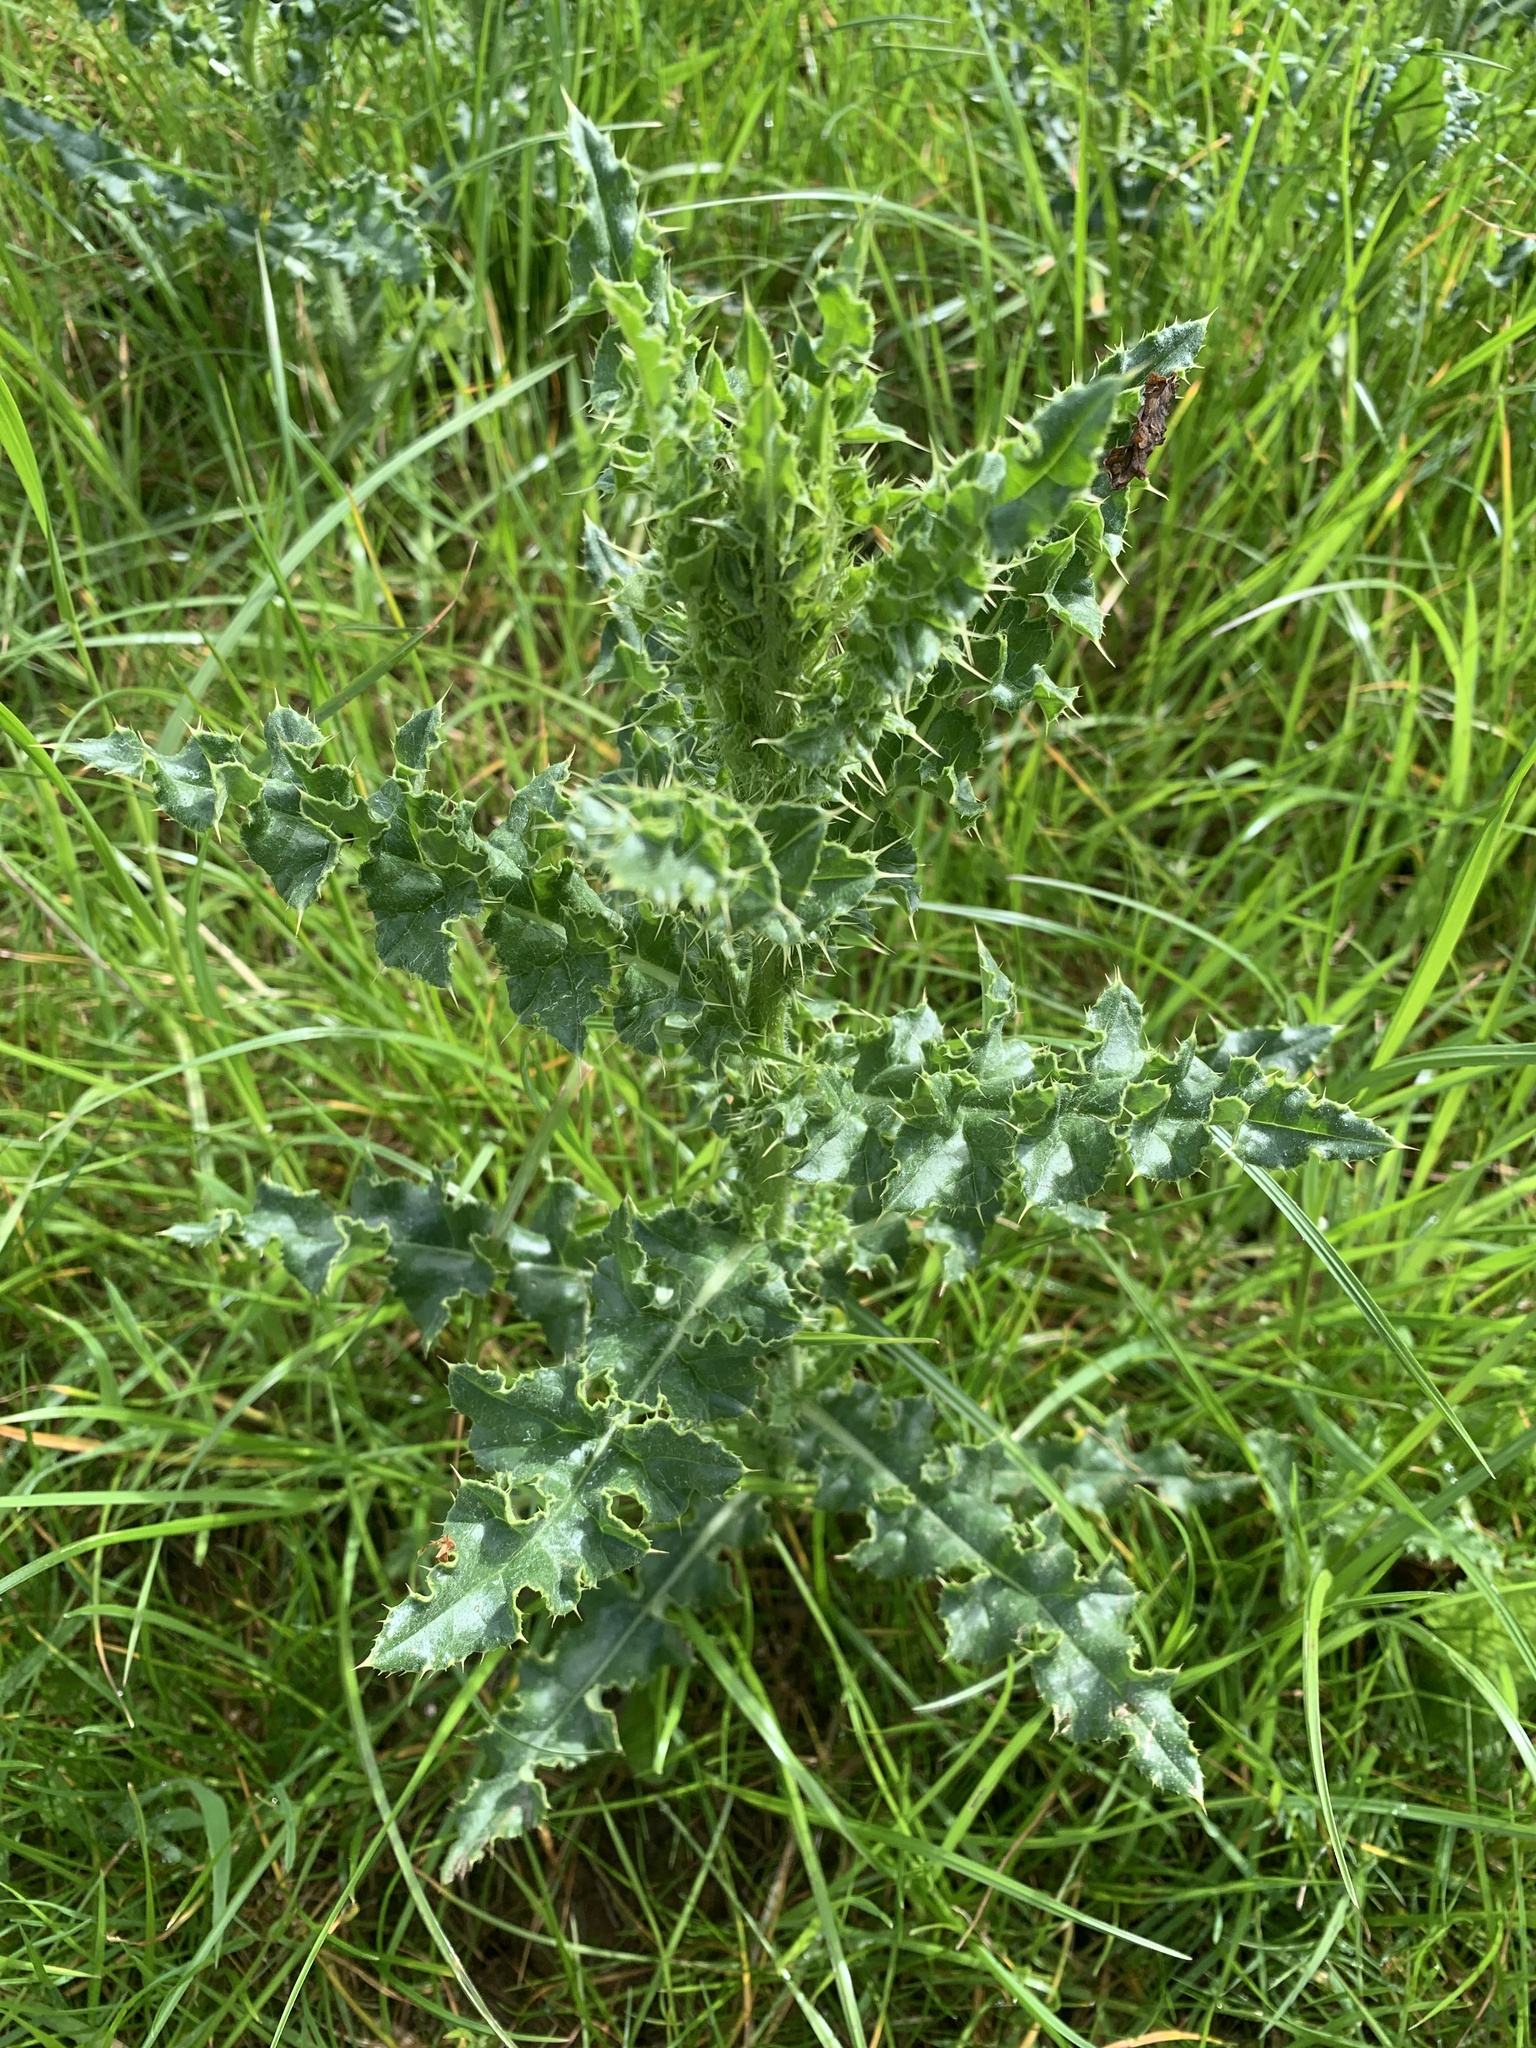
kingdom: Plantae
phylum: Tracheophyta
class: Magnoliopsida
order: Asterales
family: Asteraceae
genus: Cirsium
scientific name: Cirsium arvense
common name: Creeping thistle
